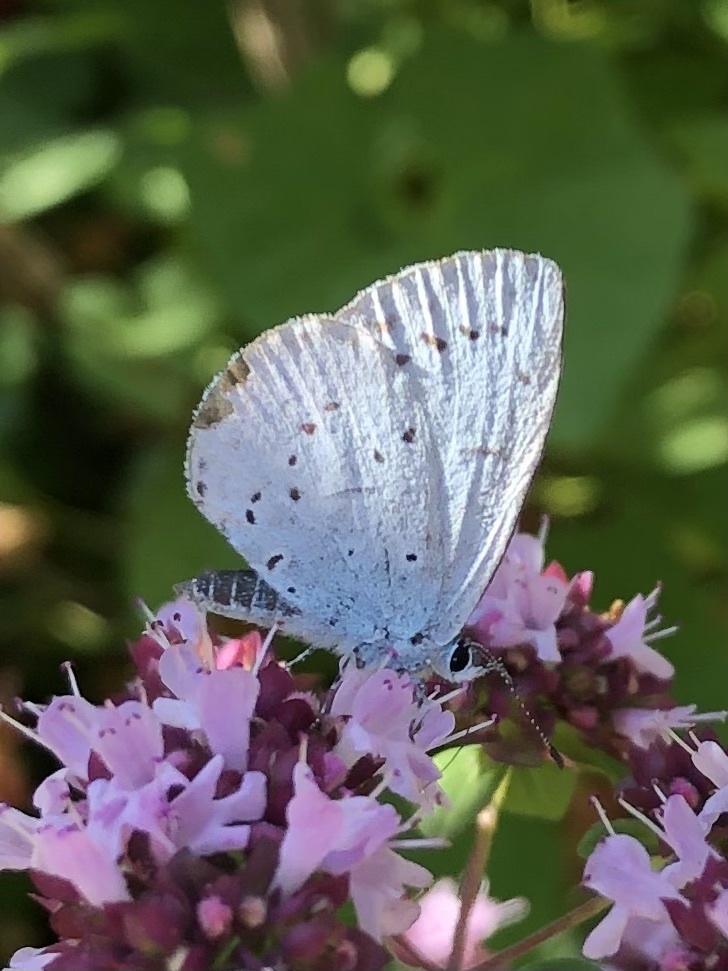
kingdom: Animalia
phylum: Arthropoda
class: Insecta
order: Lepidoptera
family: Lycaenidae
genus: Celastrina
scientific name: Celastrina argiolus
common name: Holly blue
